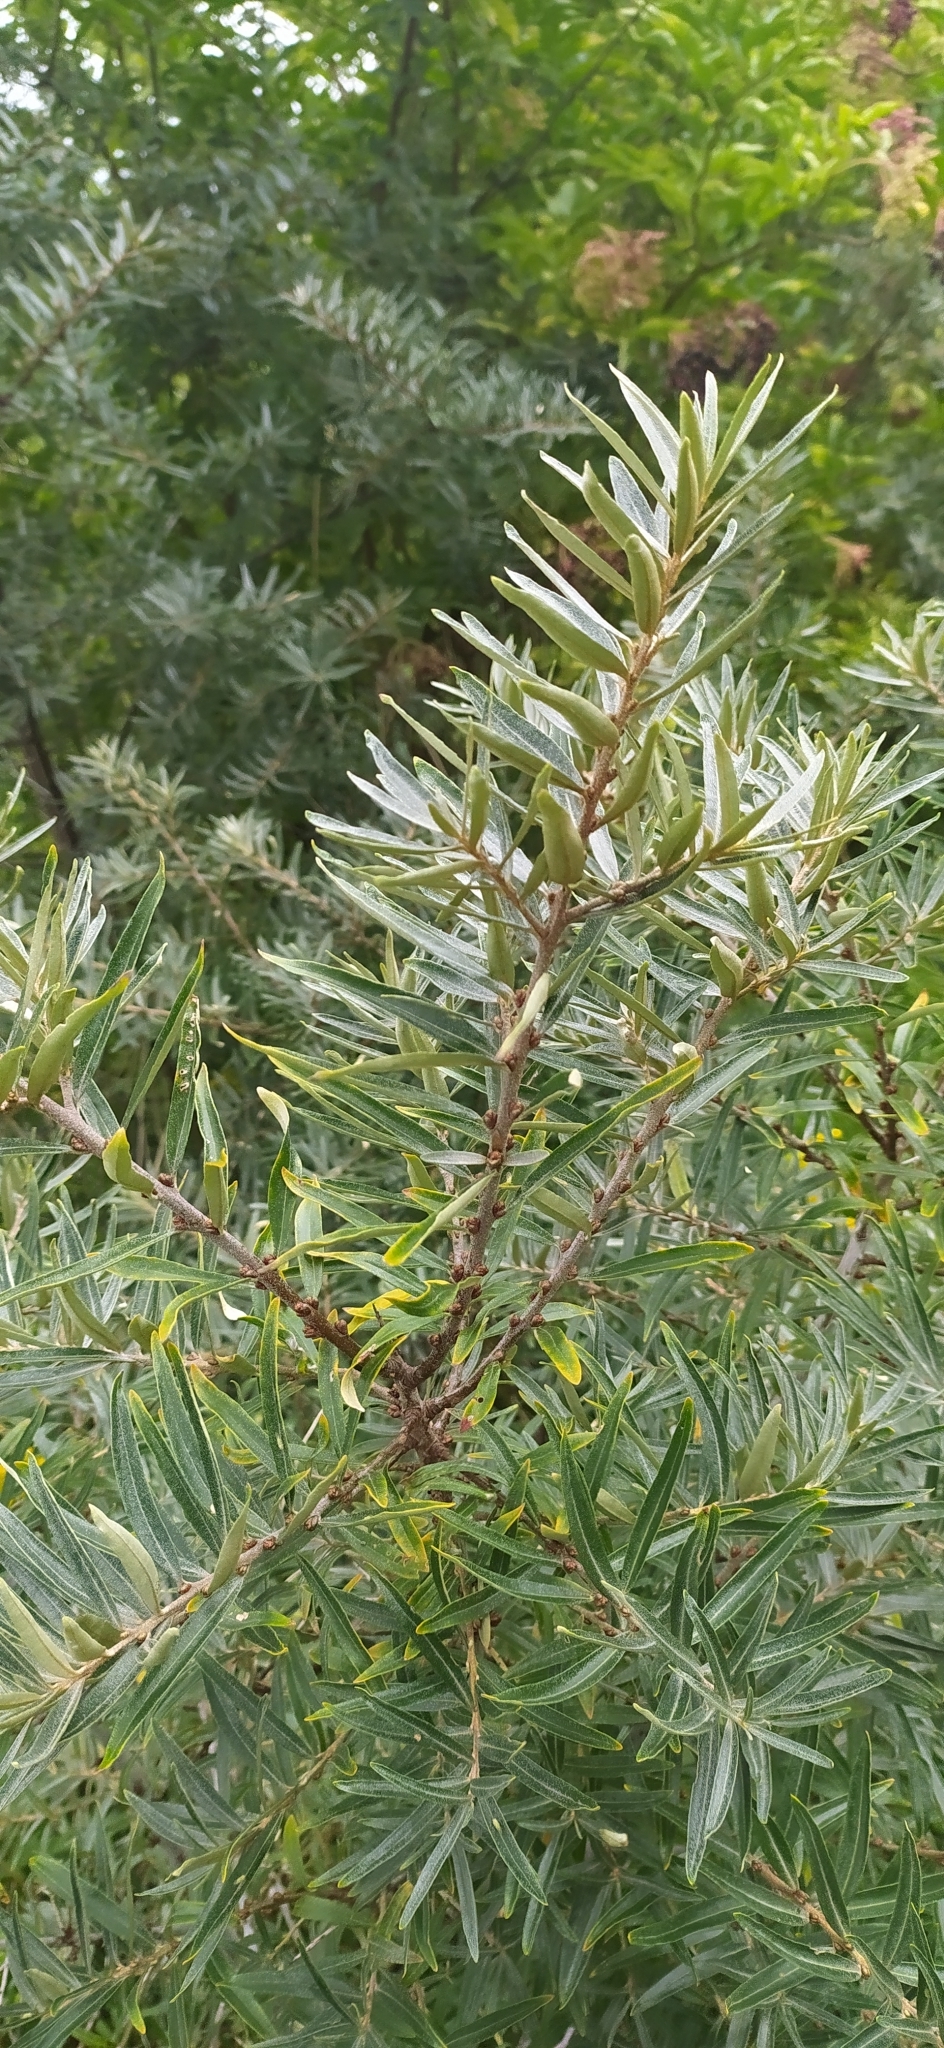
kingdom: Plantae
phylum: Tracheophyta
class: Magnoliopsida
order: Rosales
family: Elaeagnaceae
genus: Hippophae
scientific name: Hippophae rhamnoides
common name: Sea-buckthorn
